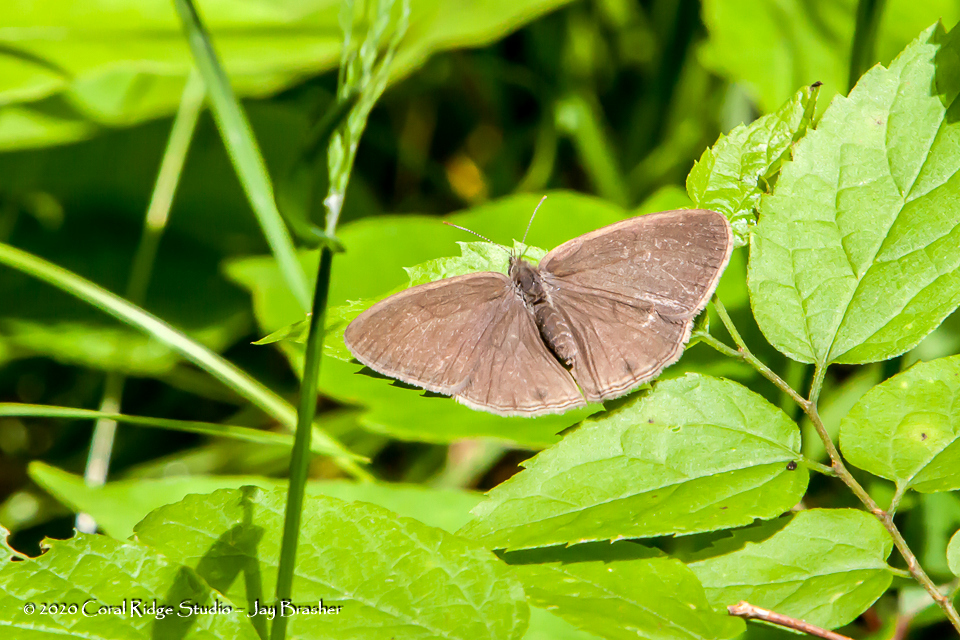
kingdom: Animalia
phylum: Arthropoda
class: Insecta
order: Lepidoptera
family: Nymphalidae
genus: Hermeuptychia
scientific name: Hermeuptychia hermes
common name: Hermes satyr
